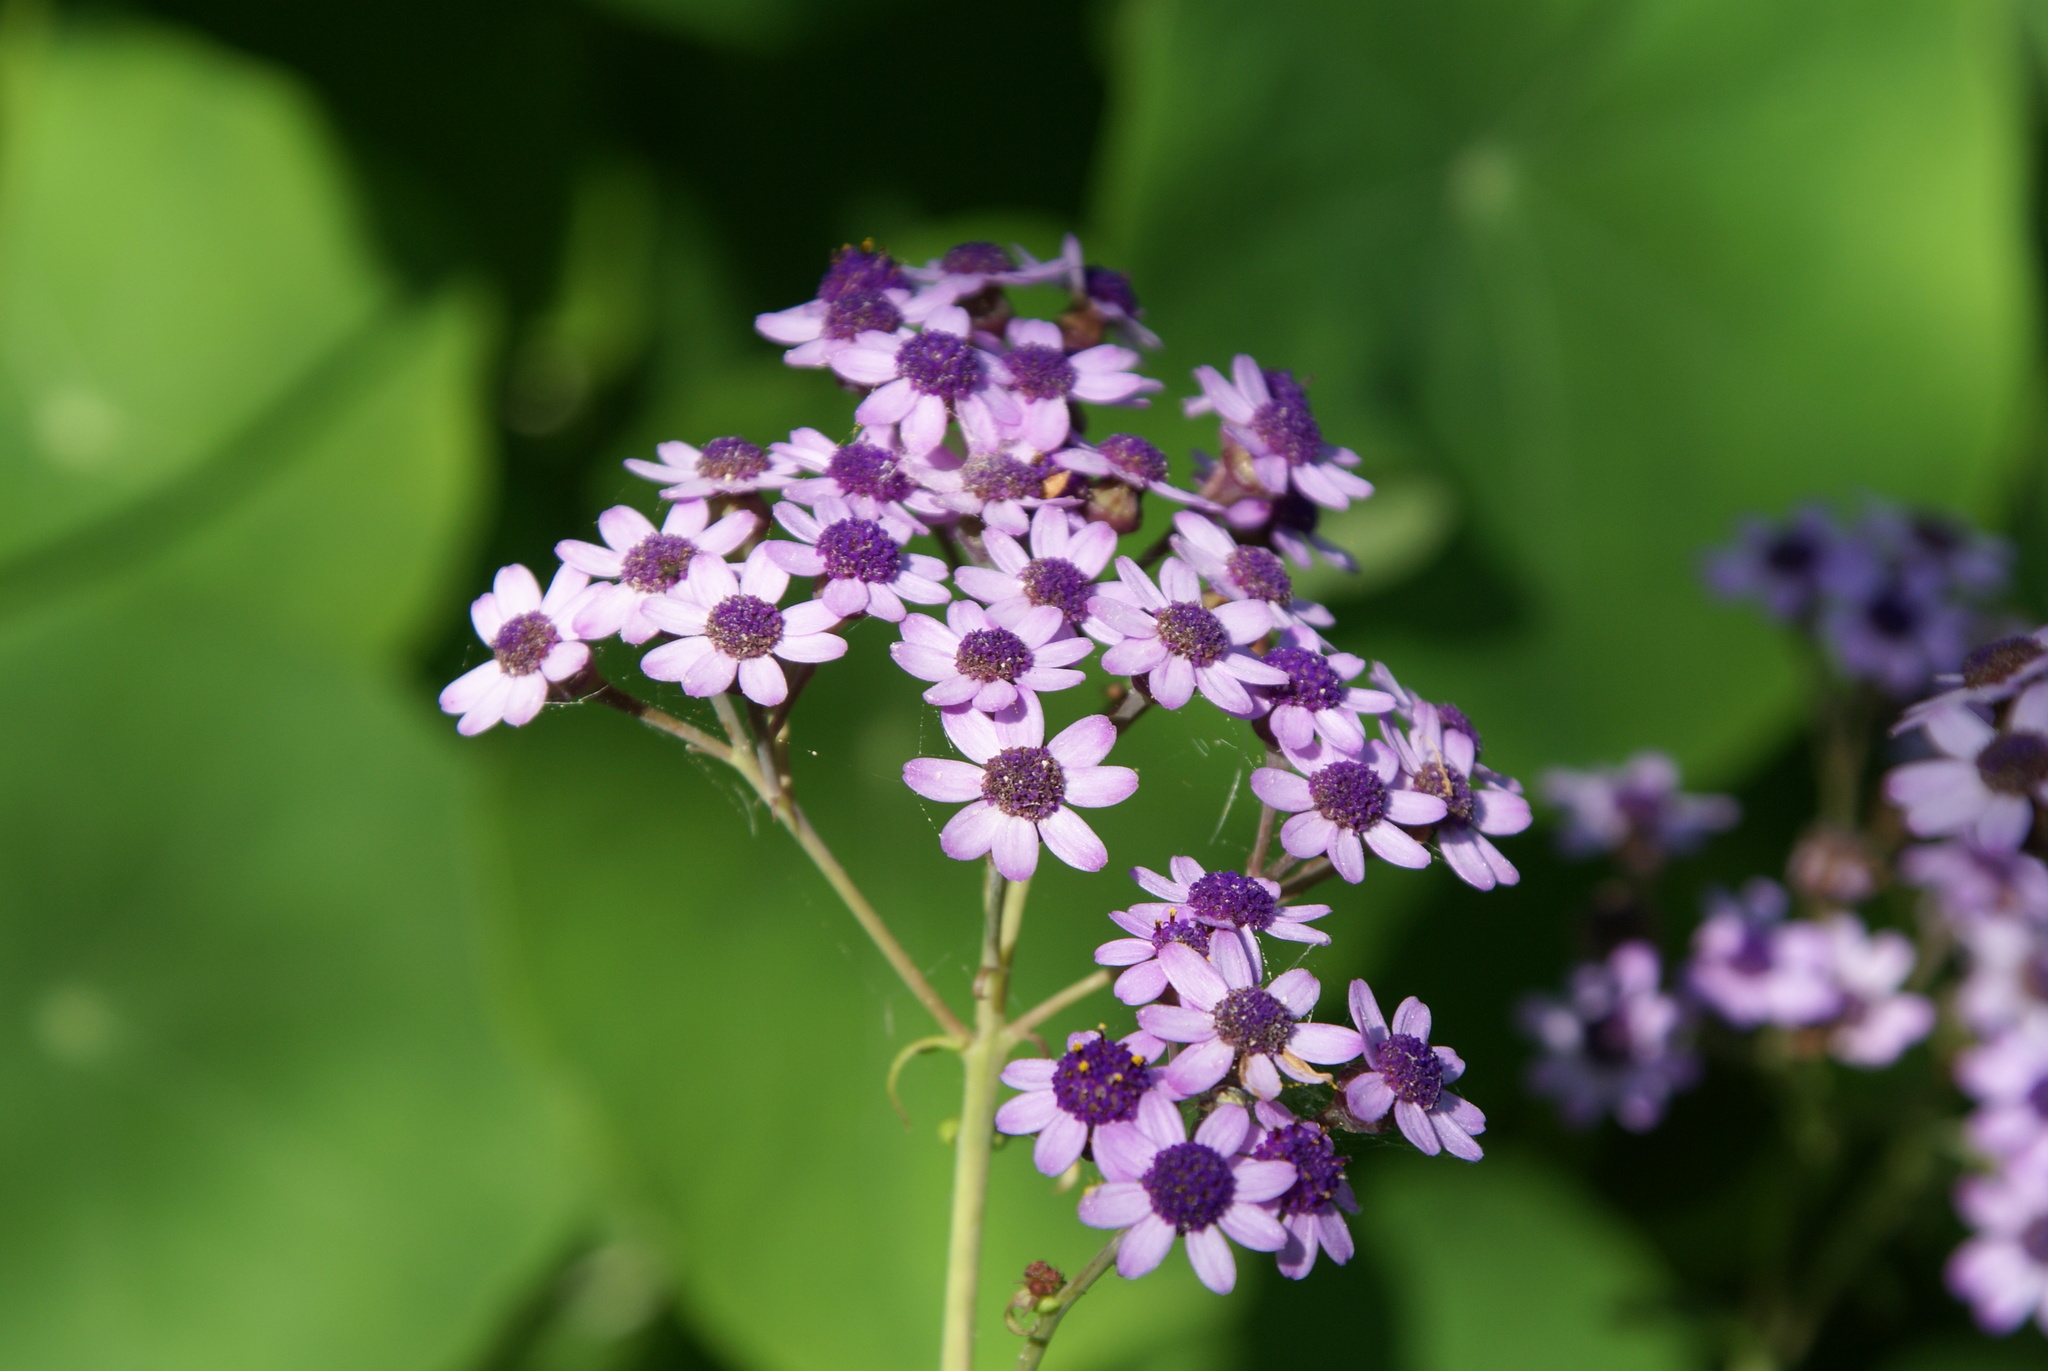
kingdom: Plantae
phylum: Tracheophyta
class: Magnoliopsida
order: Asterales
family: Asteraceae
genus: Pericallis
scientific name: Pericallis papyracea
